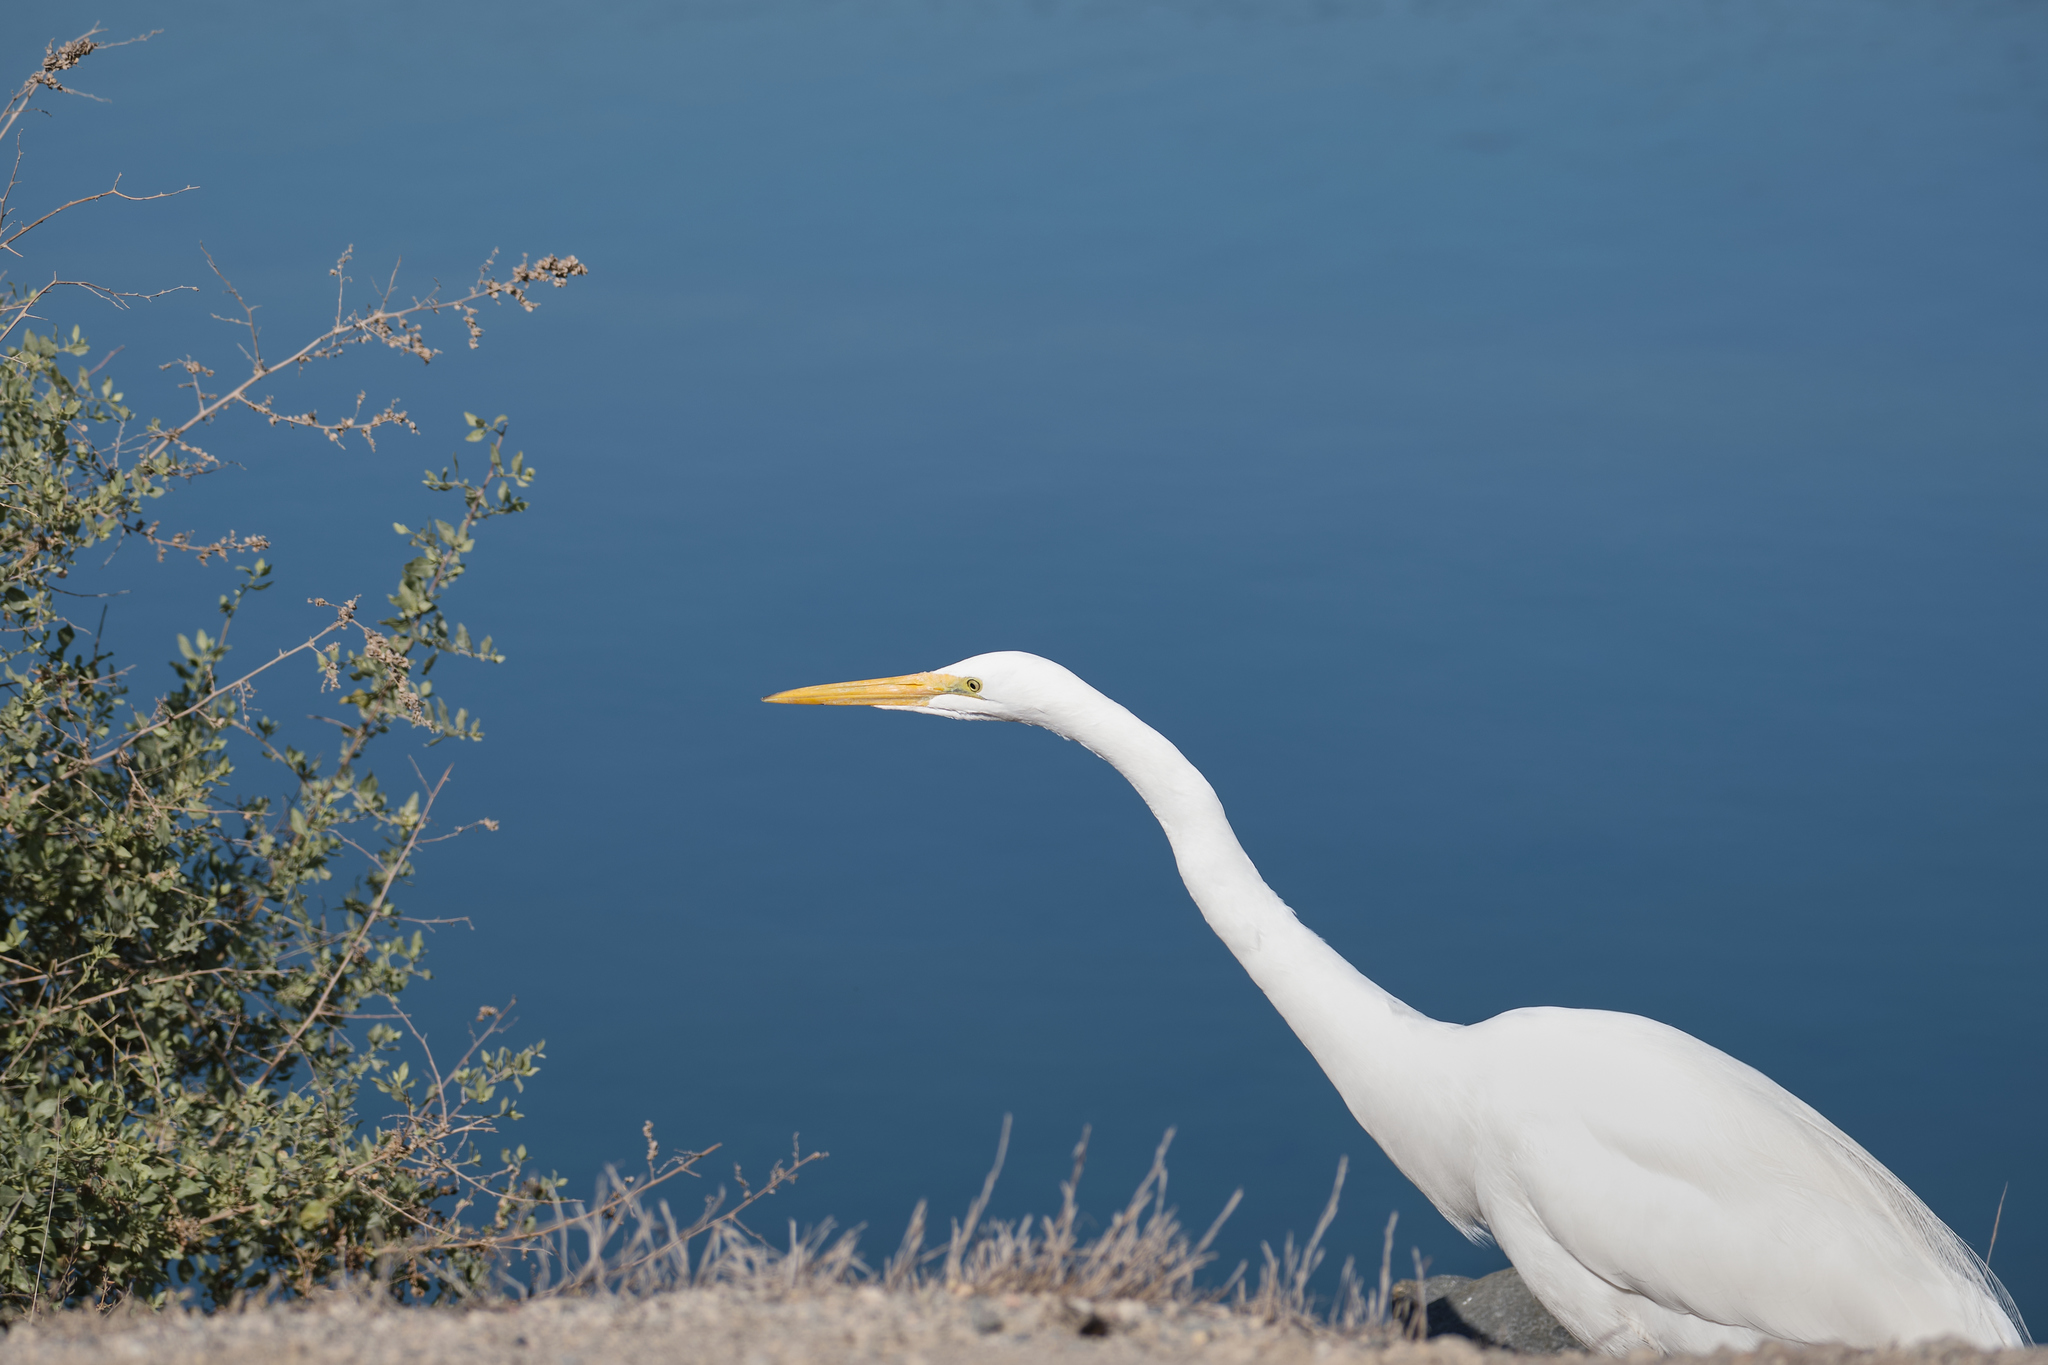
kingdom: Animalia
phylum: Chordata
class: Aves
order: Pelecaniformes
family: Ardeidae
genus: Ardea
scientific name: Ardea alba
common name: Great egret
